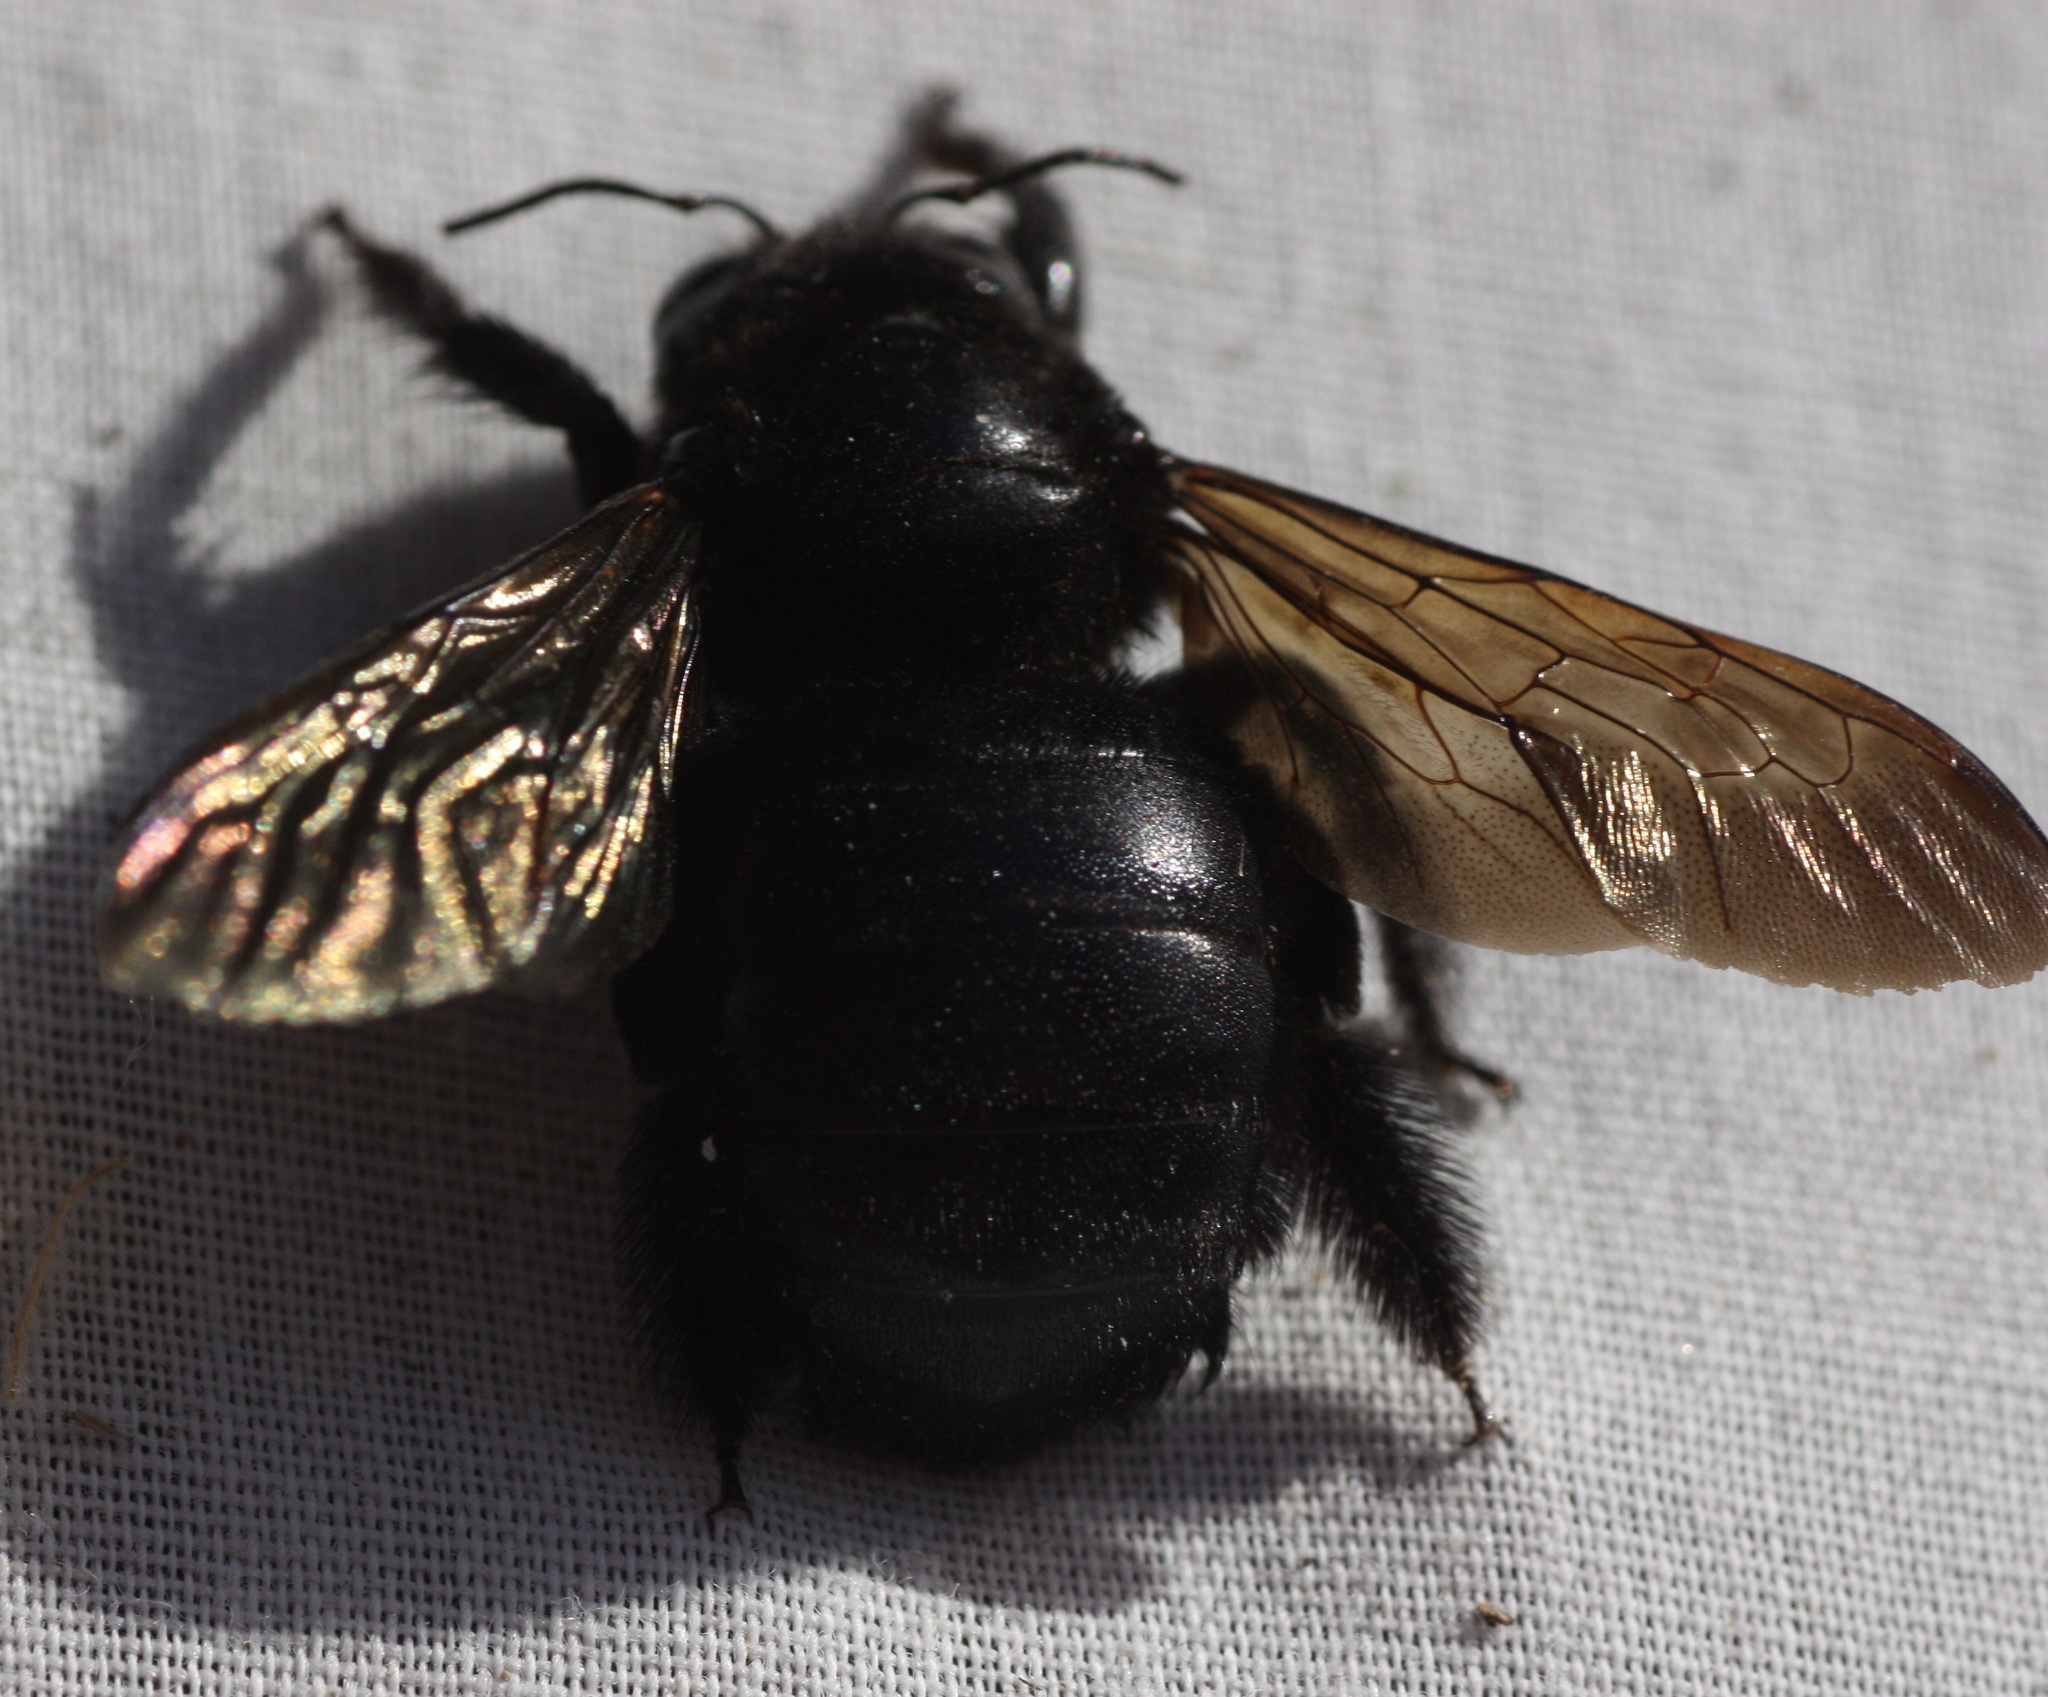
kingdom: Animalia
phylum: Arthropoda
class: Insecta
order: Hymenoptera
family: Apidae
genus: Xylocopa
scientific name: Xylocopa sonorina
